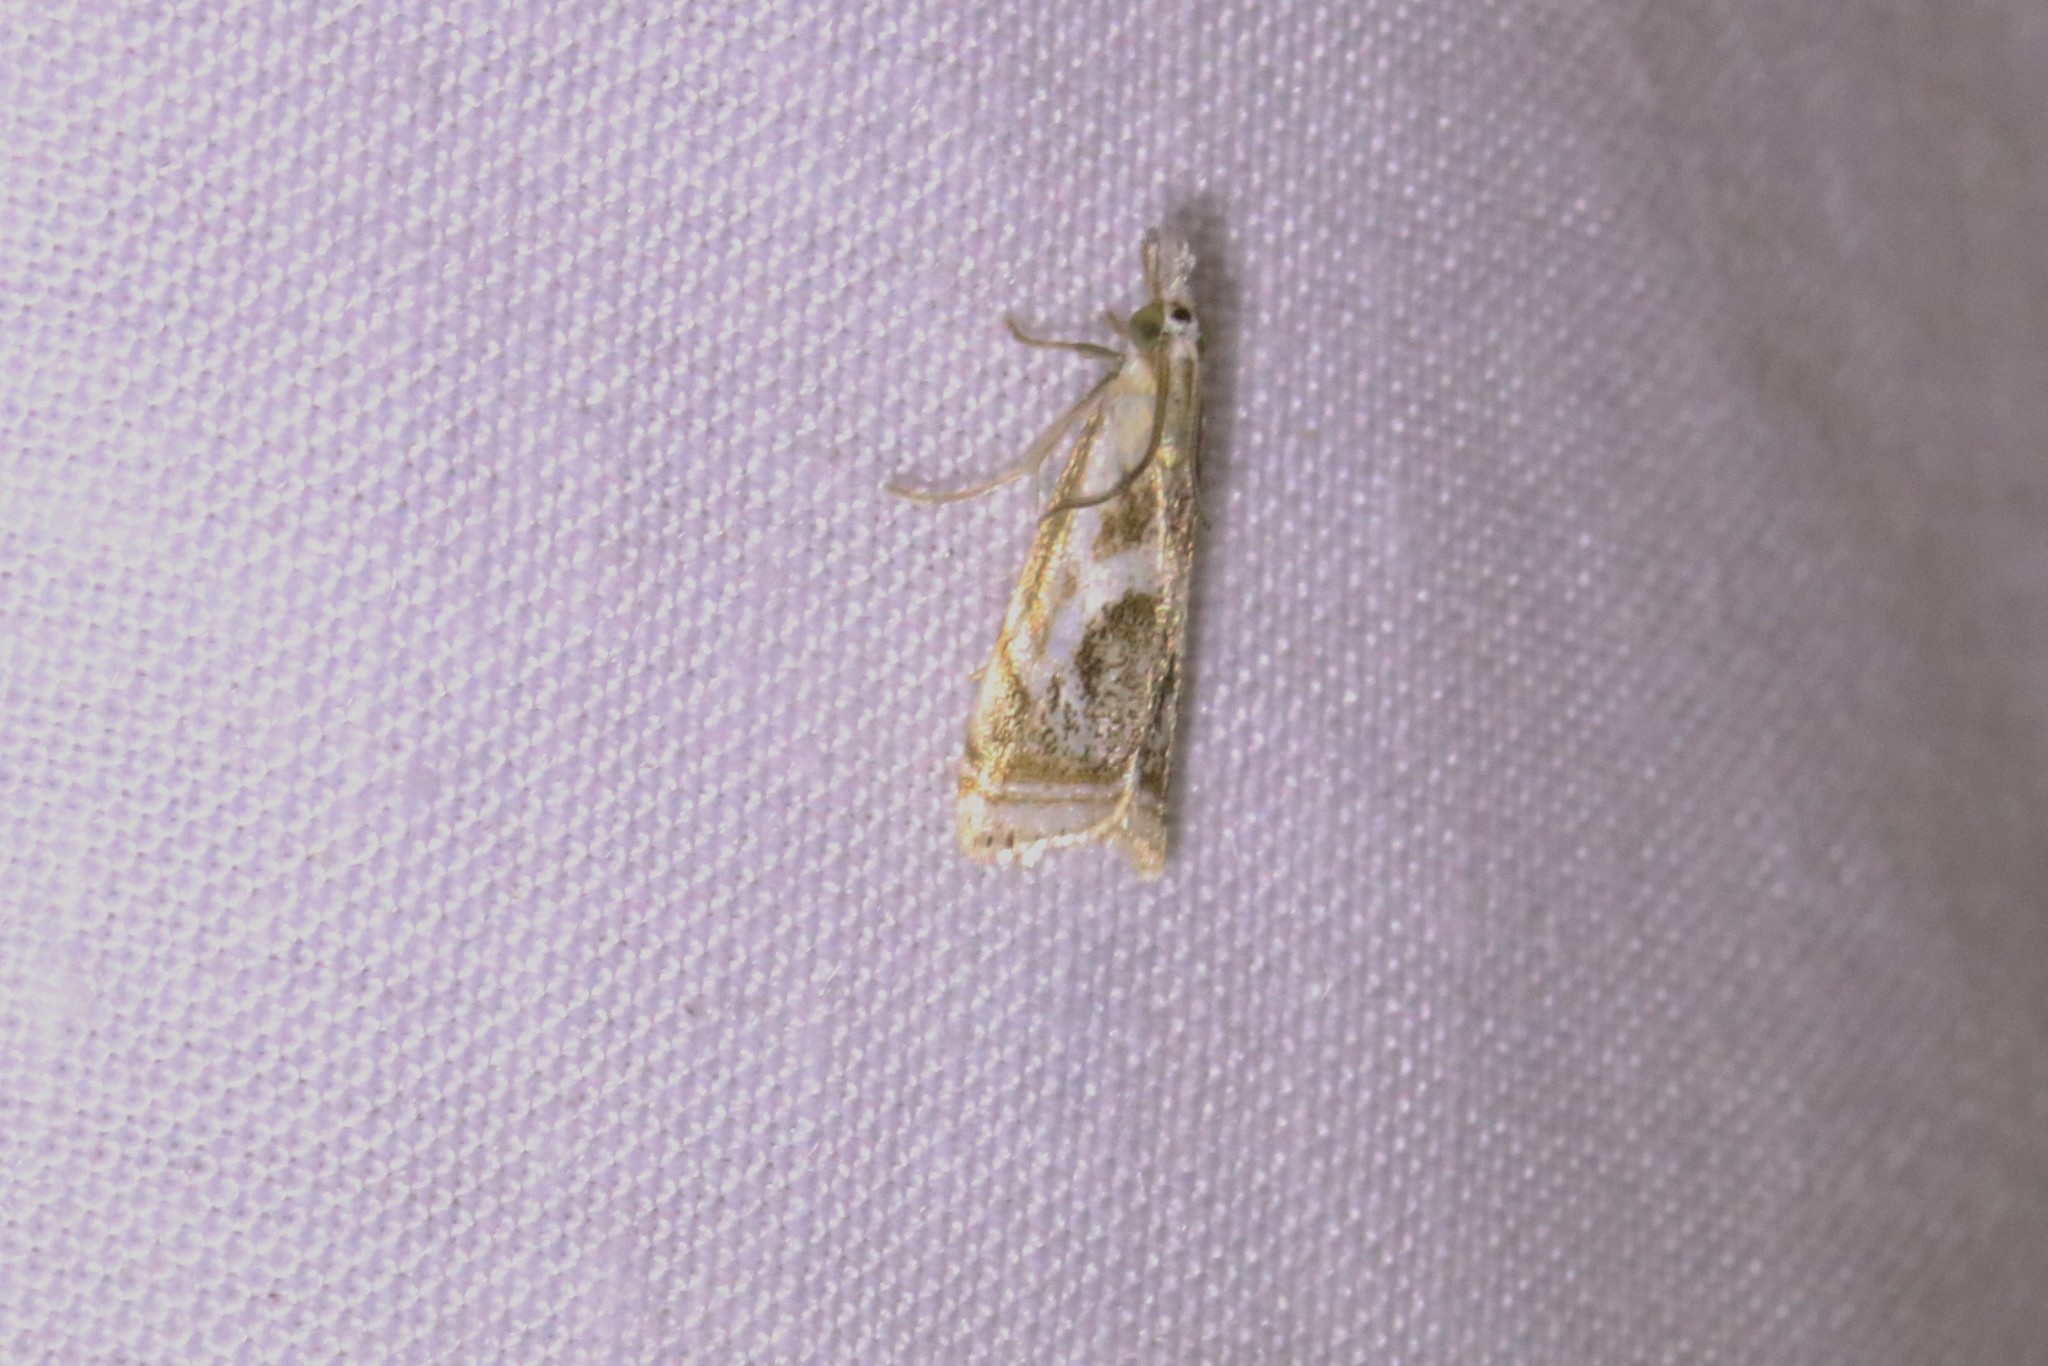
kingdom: Animalia
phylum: Arthropoda
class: Insecta
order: Lepidoptera
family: Crambidae
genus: Microcrambus
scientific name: Microcrambus elegans
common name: Elegant grass-veneer
